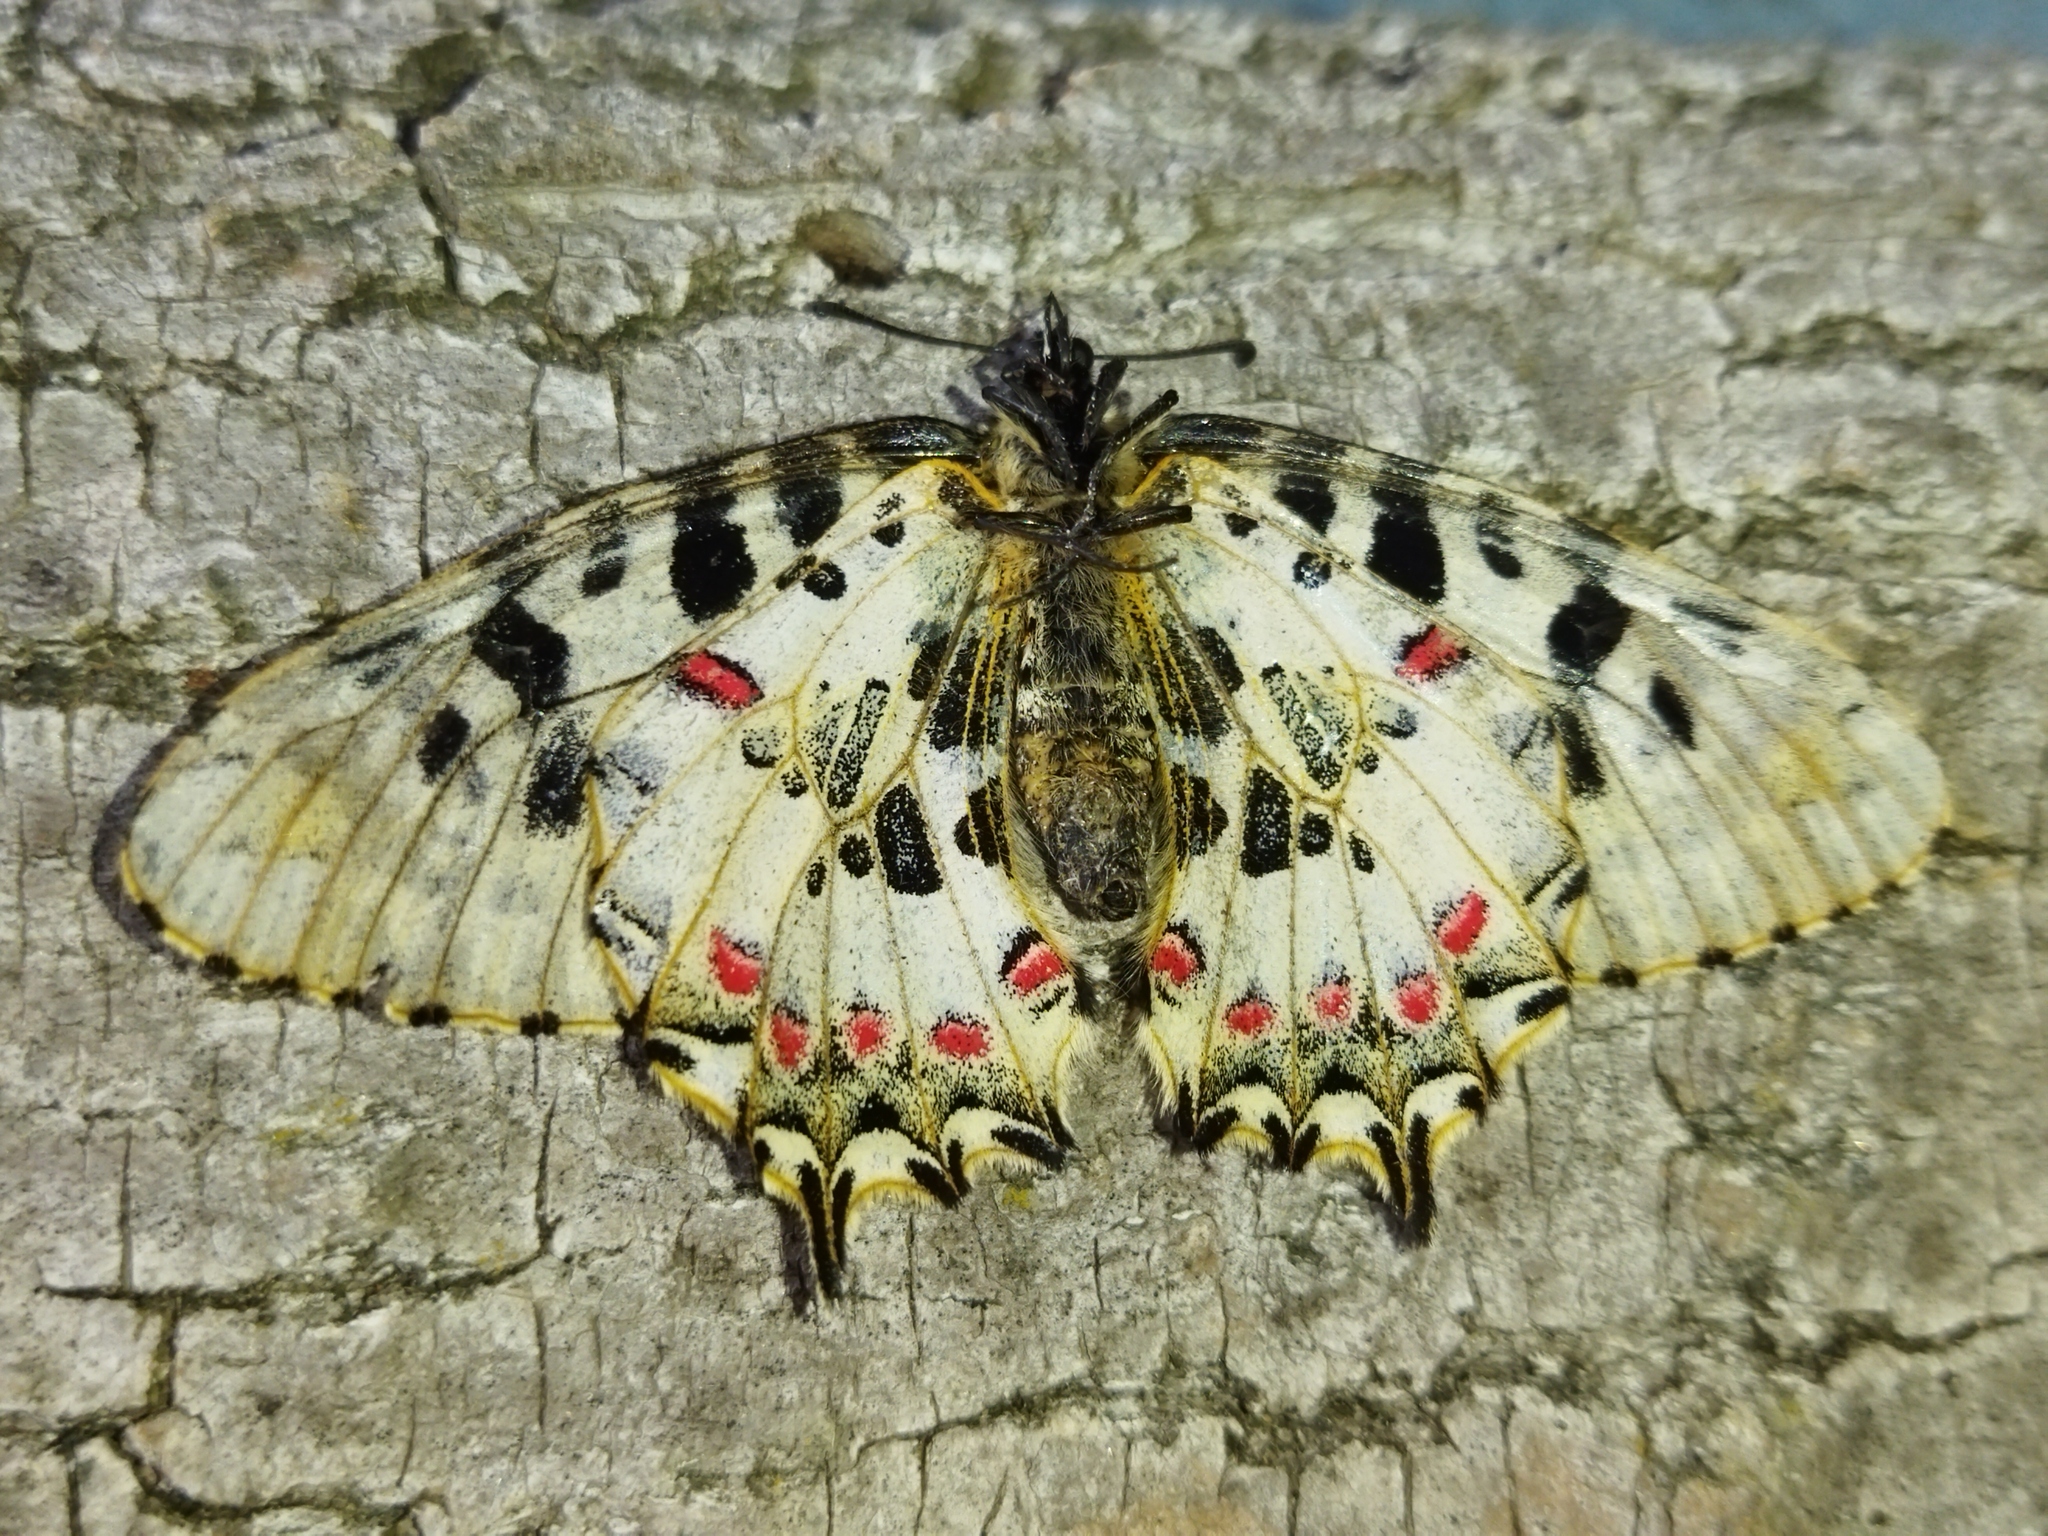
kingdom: Animalia
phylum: Arthropoda
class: Insecta
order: Lepidoptera
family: Papilionidae
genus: Zerynthia
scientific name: Zerynthia cerisy
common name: Eastern festoon
